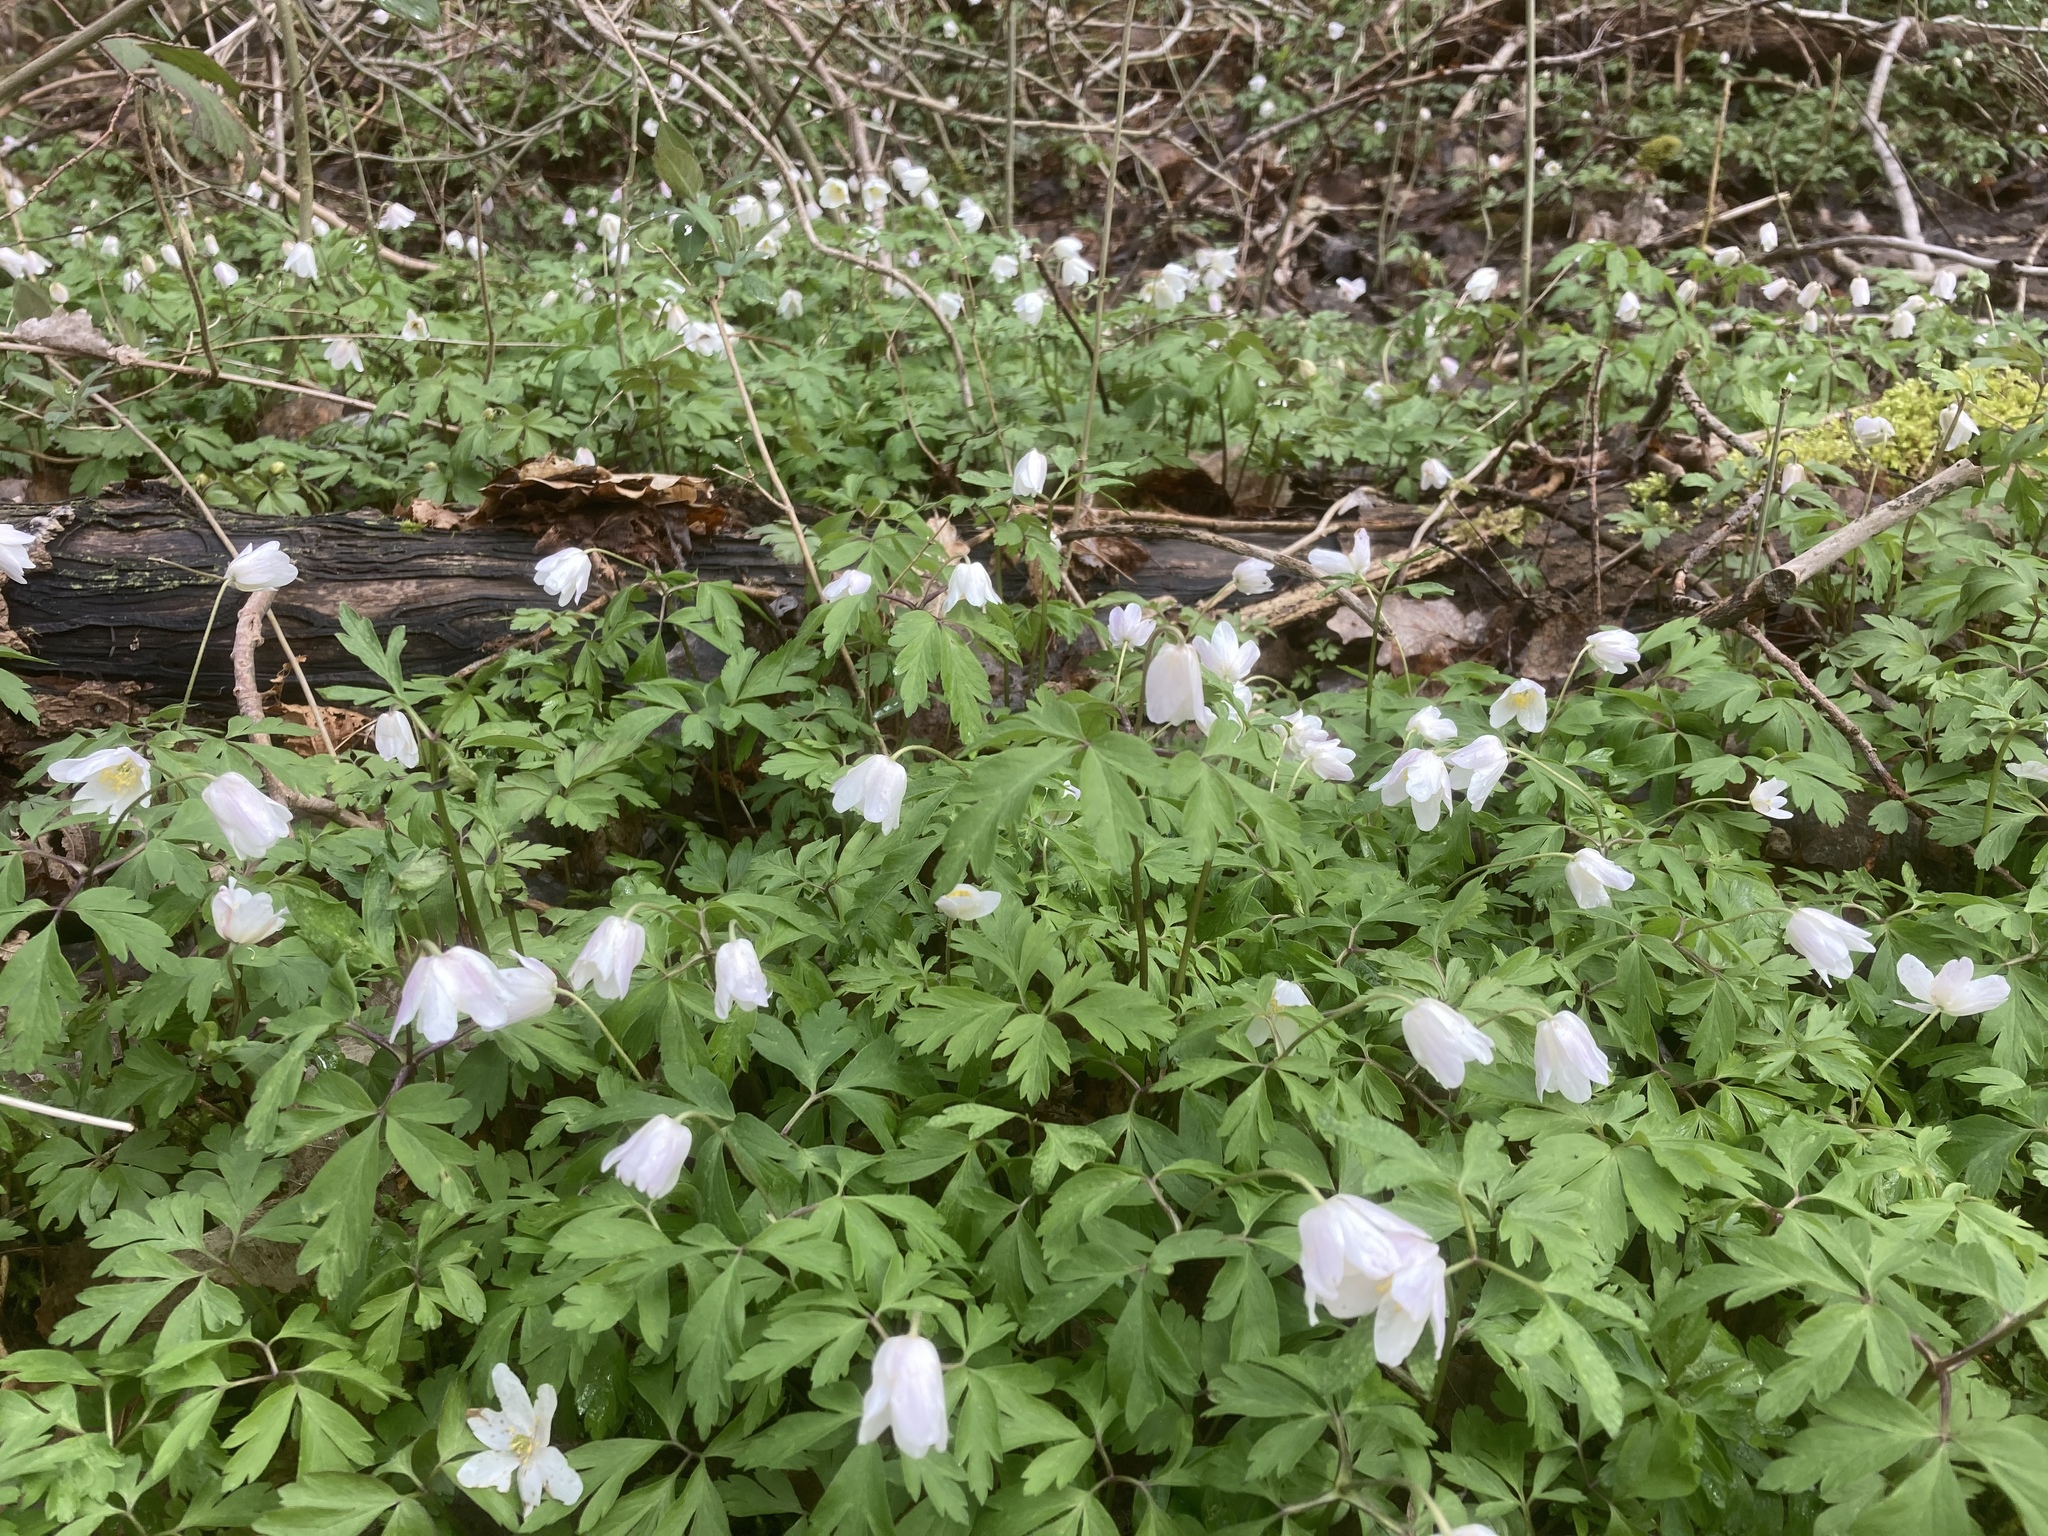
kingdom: Plantae
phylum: Tracheophyta
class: Magnoliopsida
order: Ranunculales
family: Ranunculaceae
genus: Anemone
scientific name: Anemone nemorosa
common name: Wood anemone
